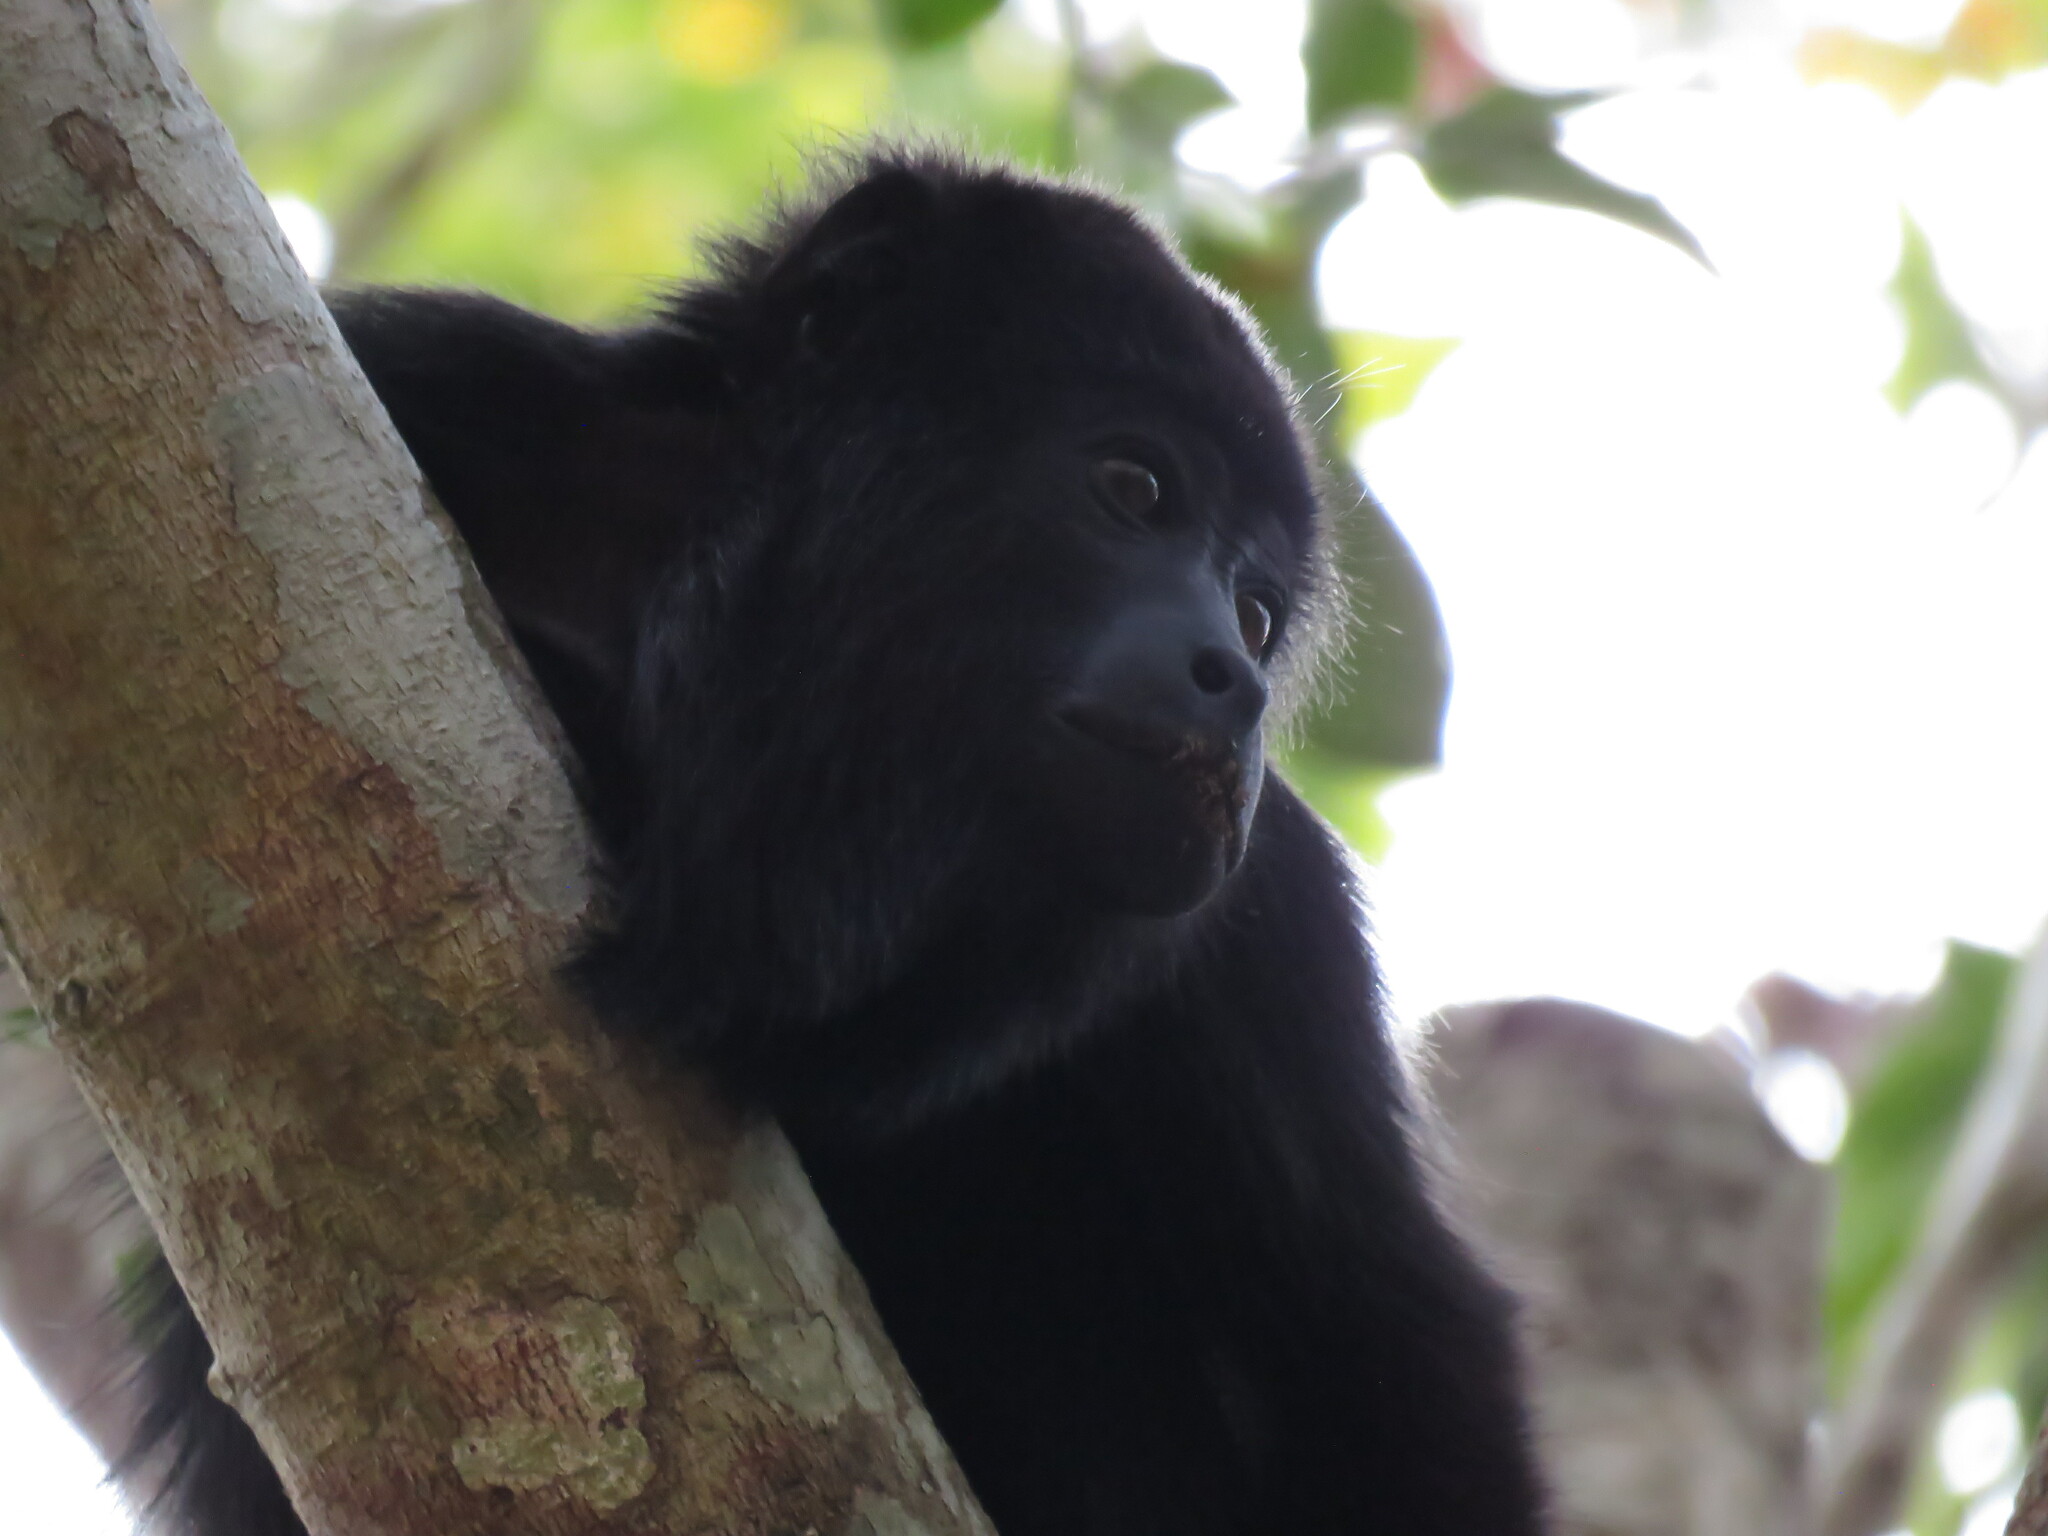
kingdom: Animalia
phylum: Chordata
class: Mammalia
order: Primates
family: Atelidae
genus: Alouatta
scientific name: Alouatta pigra
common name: Guatemalan black howler
